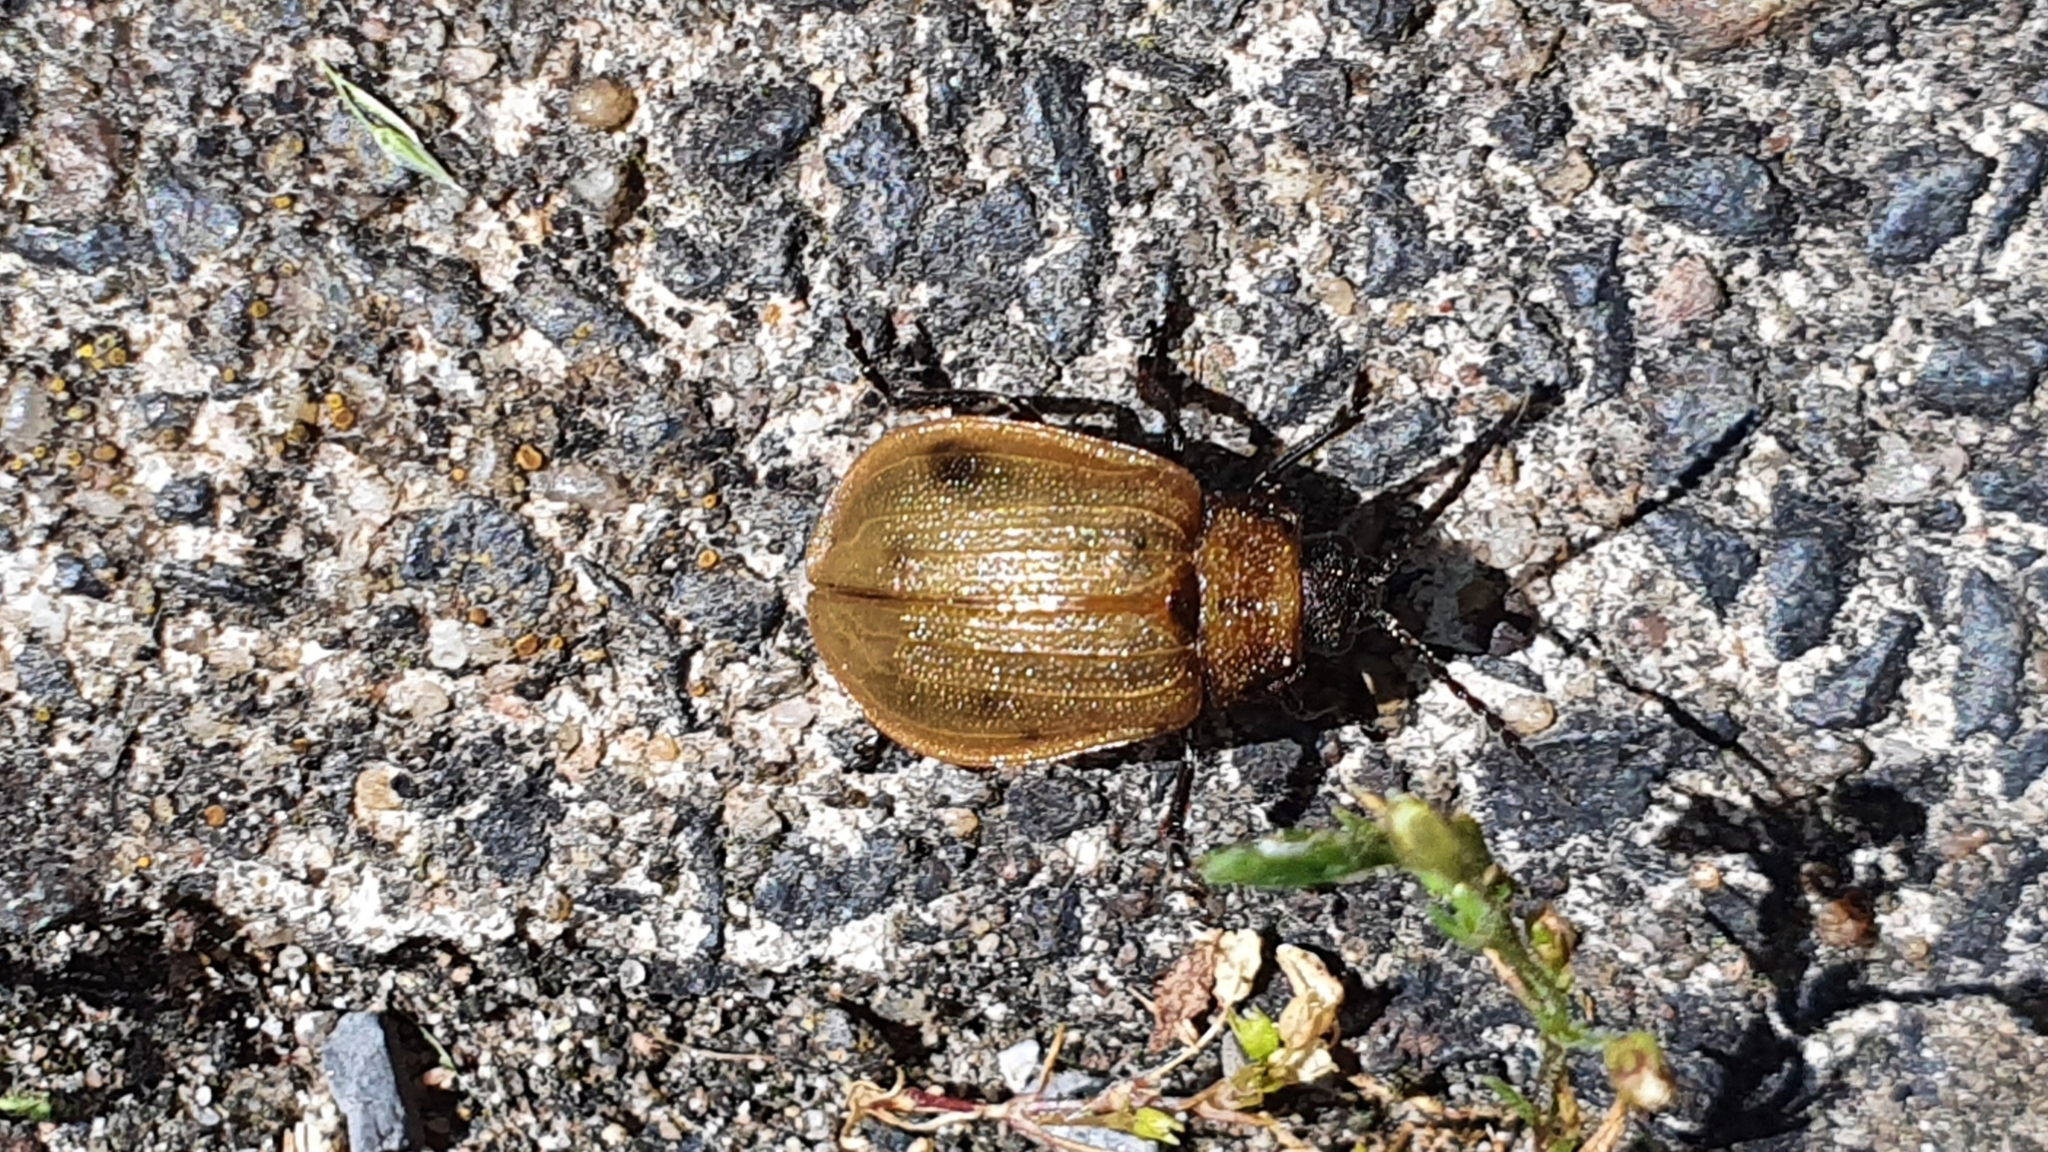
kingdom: Animalia
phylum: Arthropoda
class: Insecta
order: Coleoptera
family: Chrysomelidae
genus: Galeruca
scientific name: Galeruca pomonae
